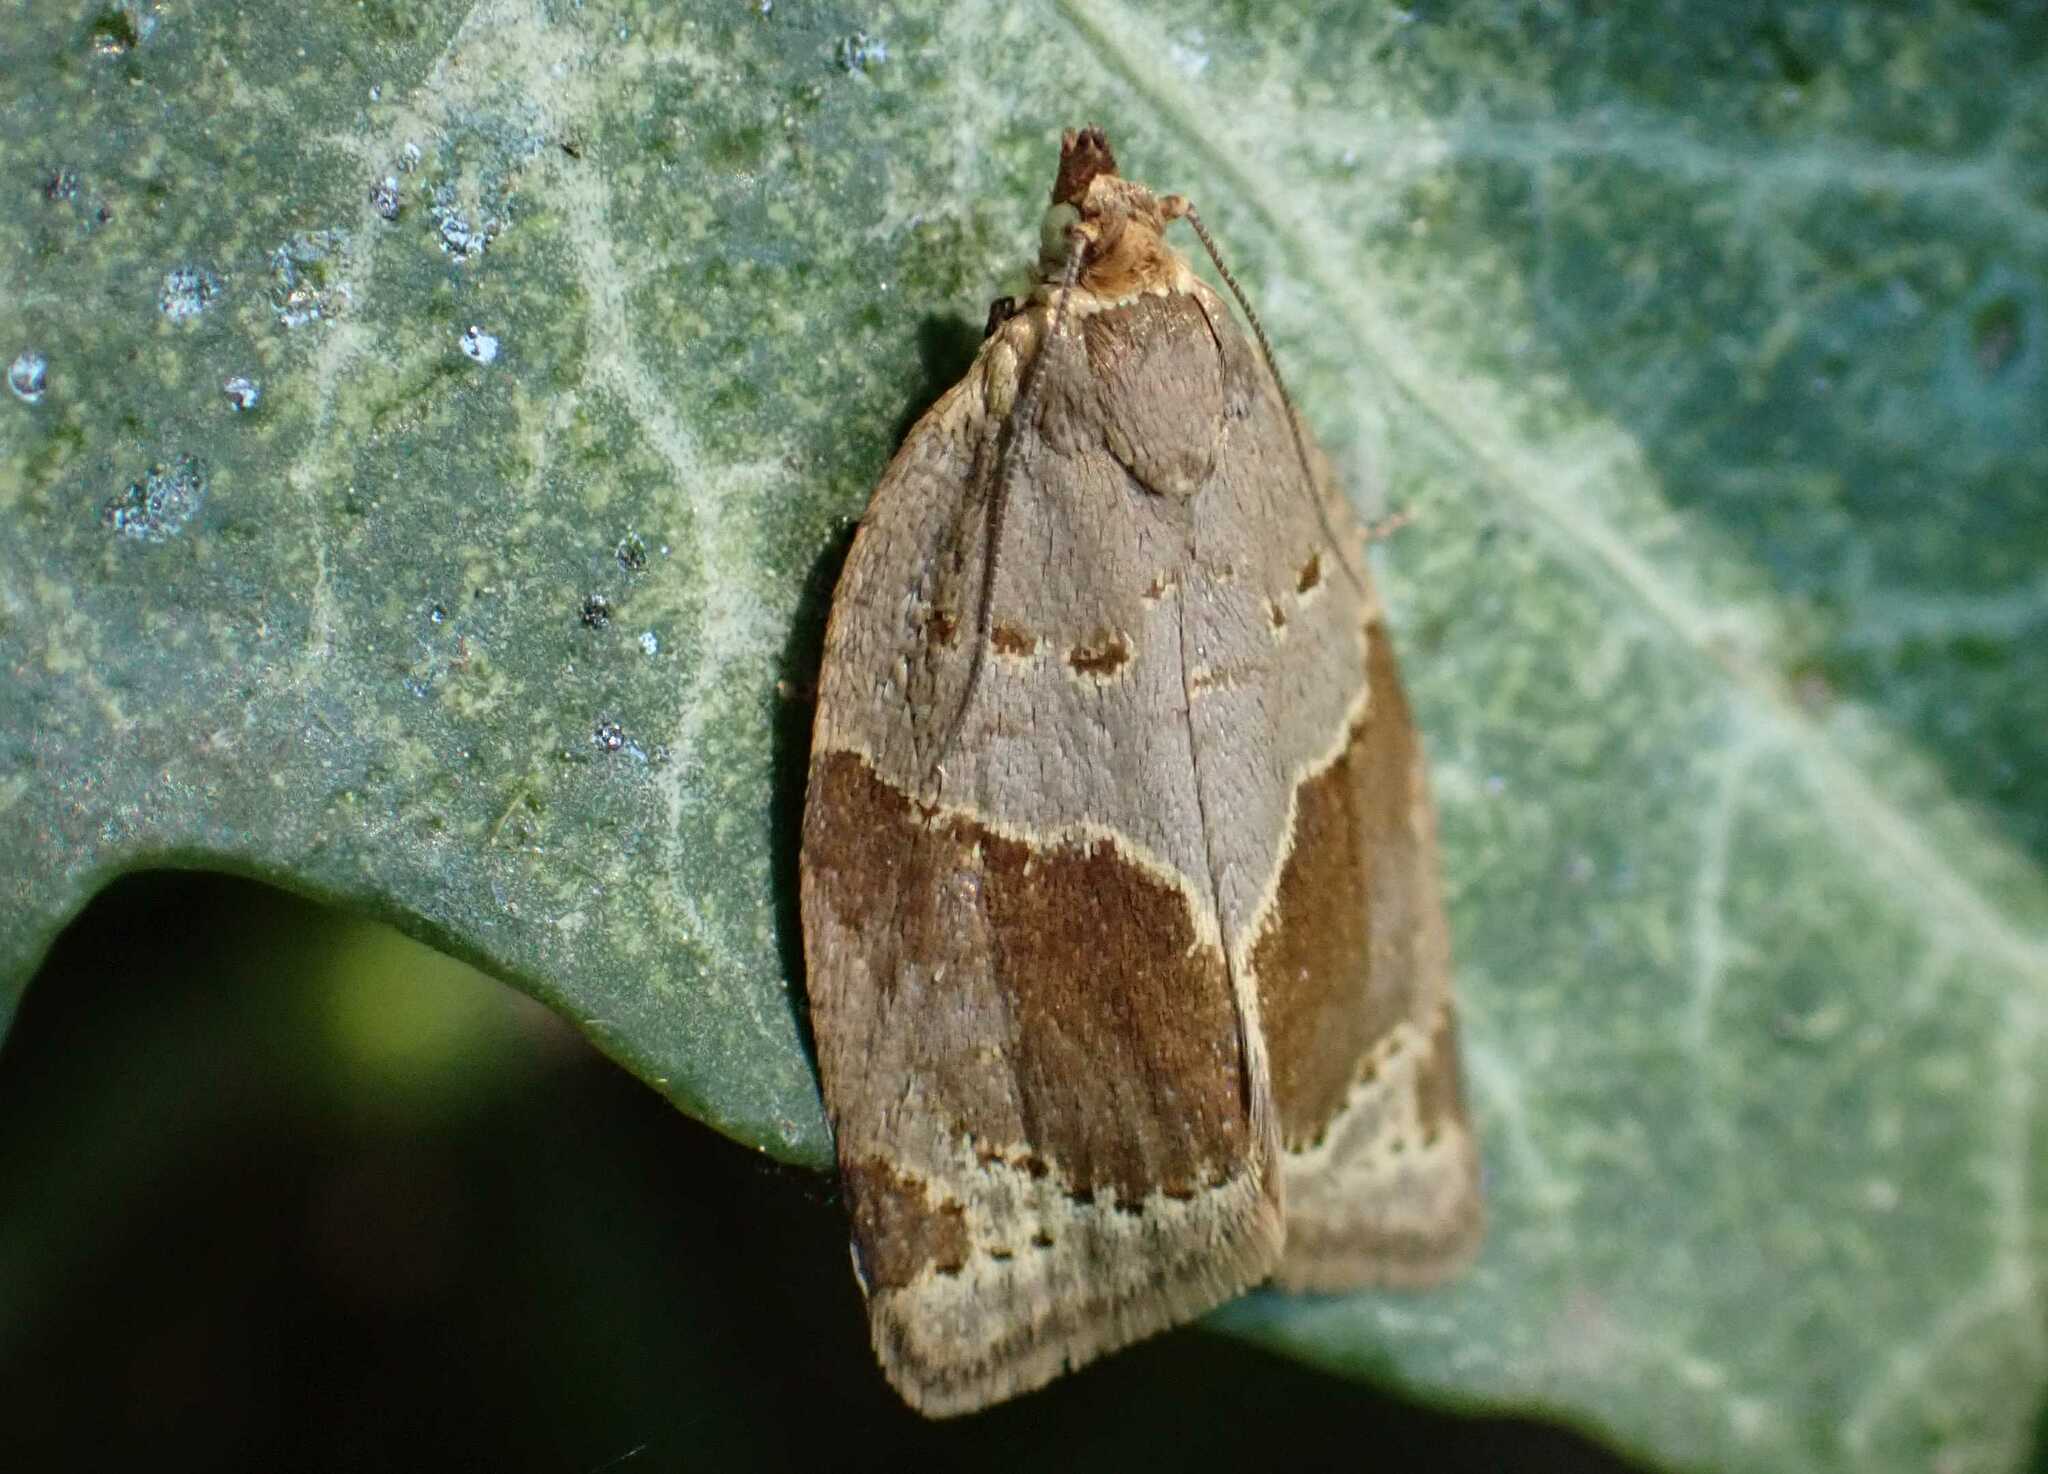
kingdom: Animalia
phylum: Arthropoda
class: Insecta
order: Lepidoptera
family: Tortricidae
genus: Clepsis
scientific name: Clepsis dumicolana
